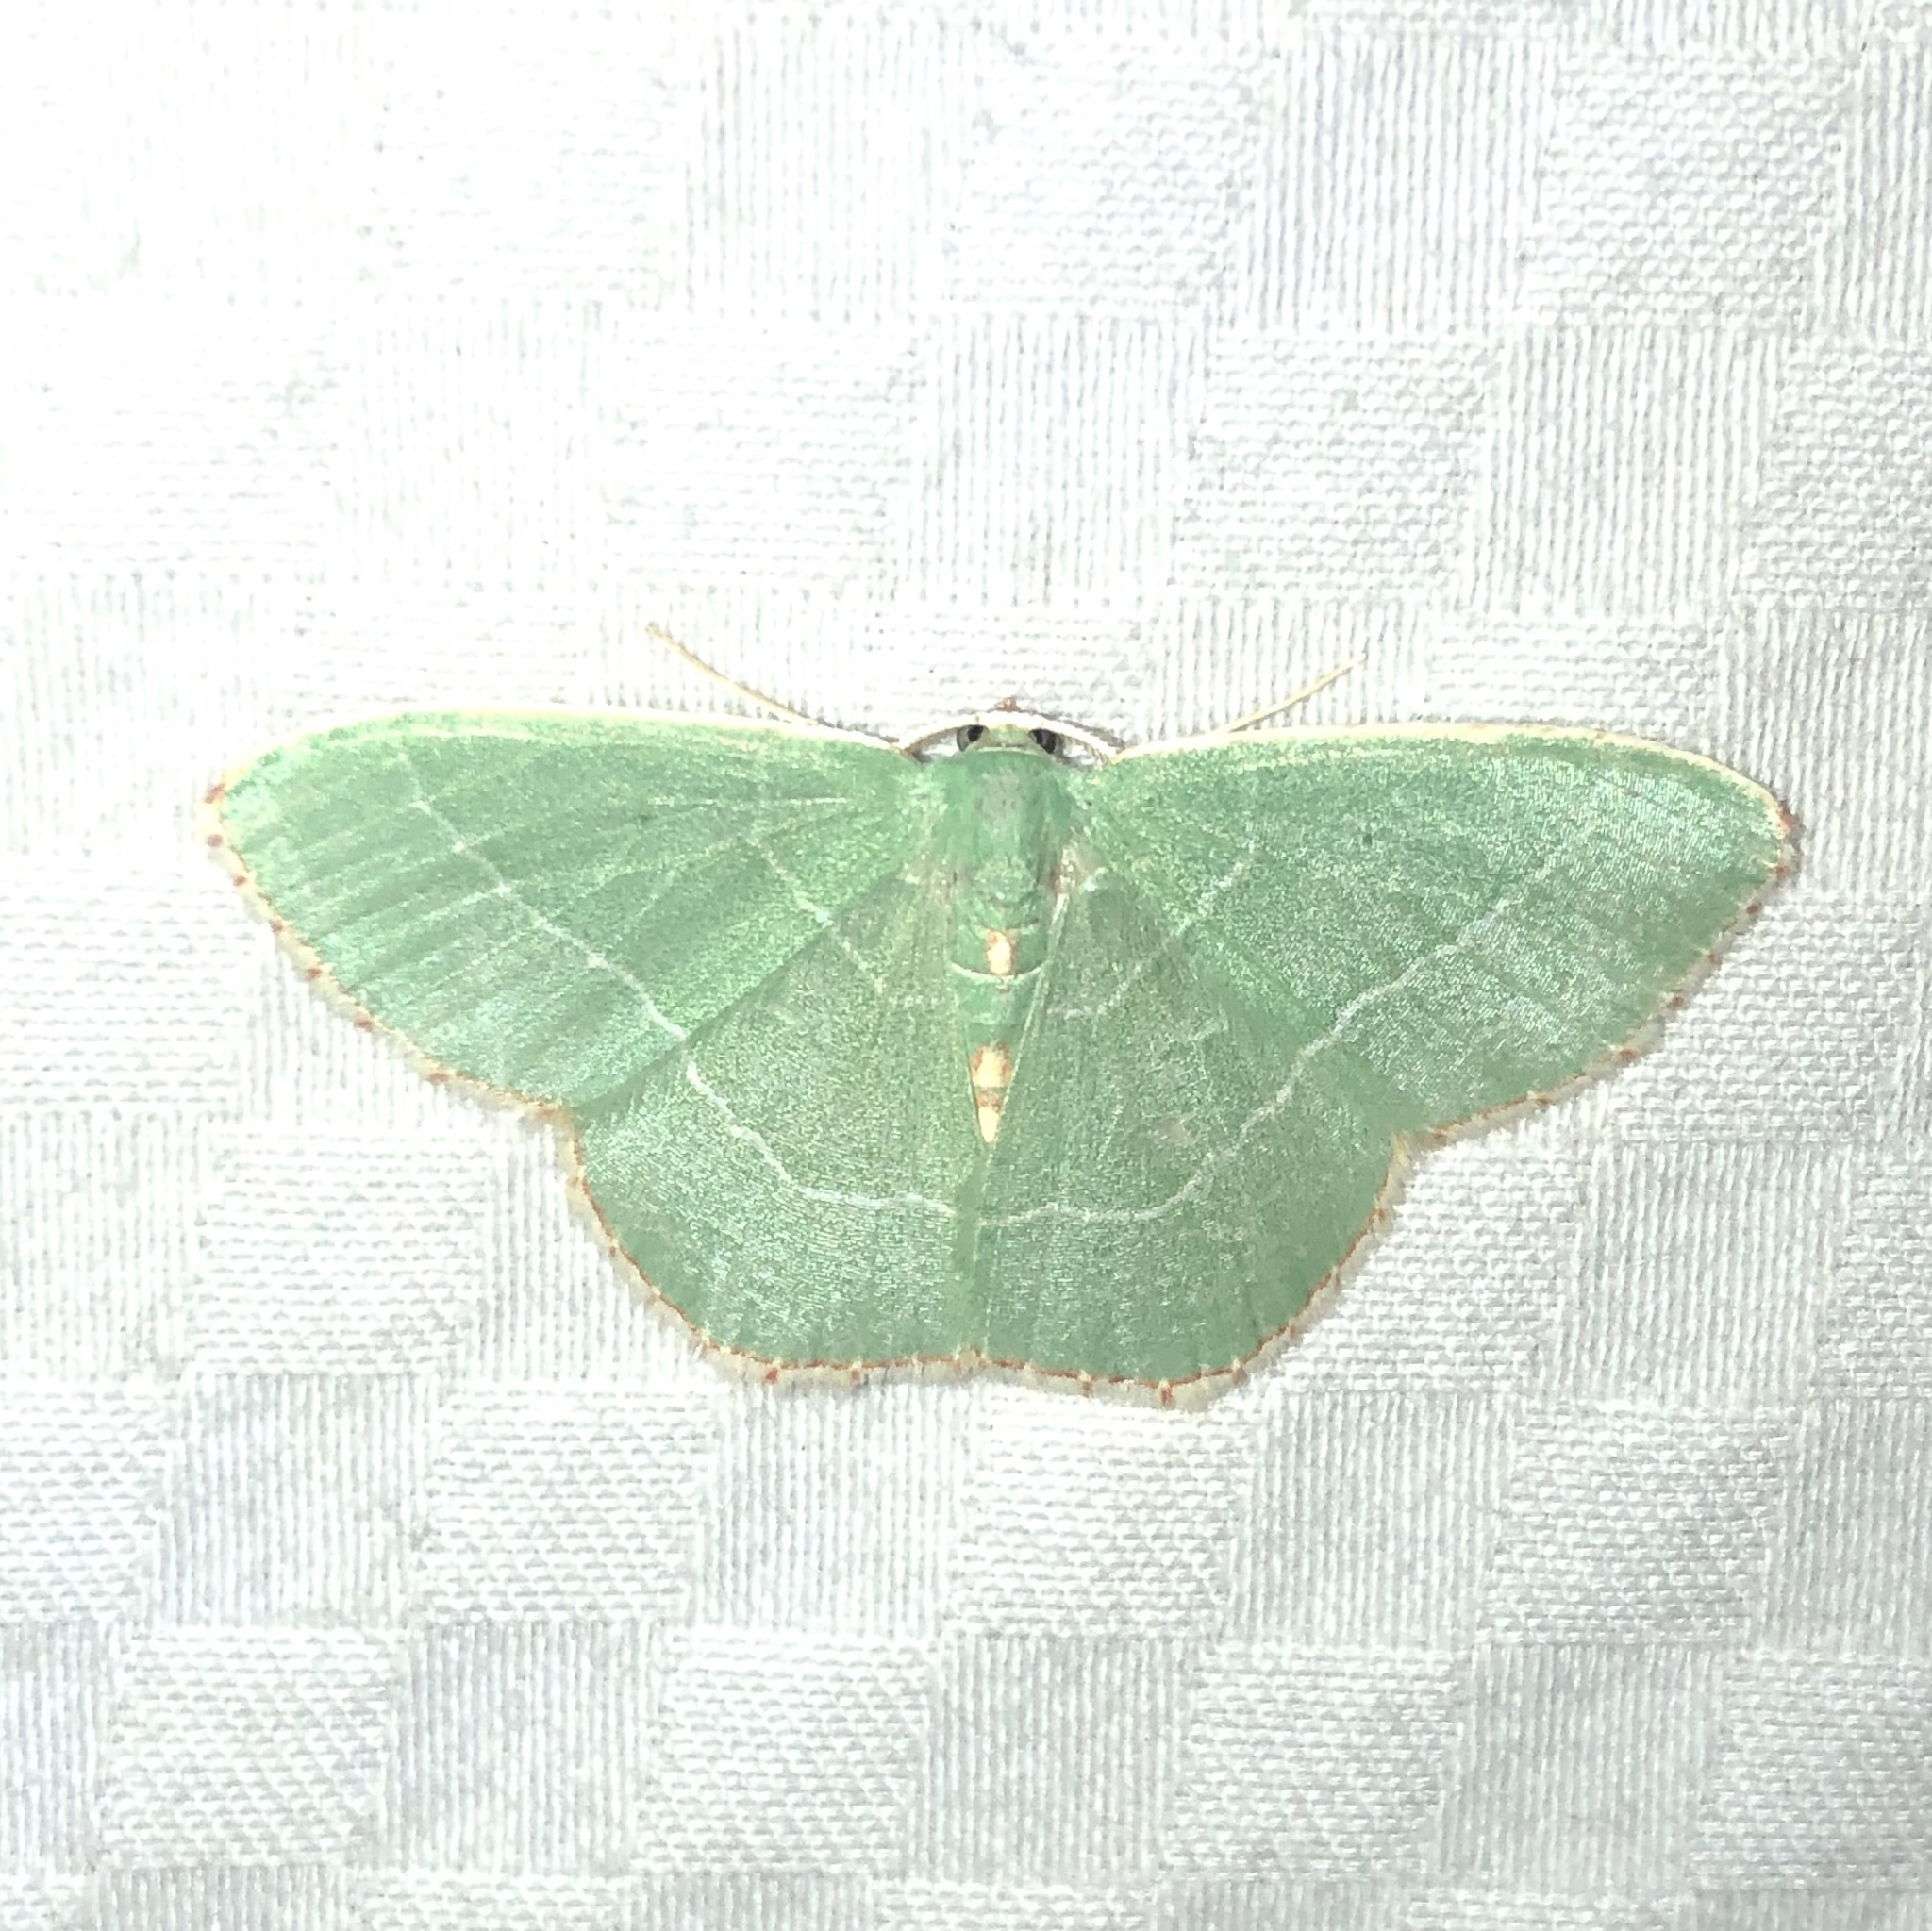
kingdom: Animalia
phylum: Arthropoda
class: Insecta
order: Lepidoptera
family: Geometridae
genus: Nemoria
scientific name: Nemoria bistriaria
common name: Red-fringed emerald
